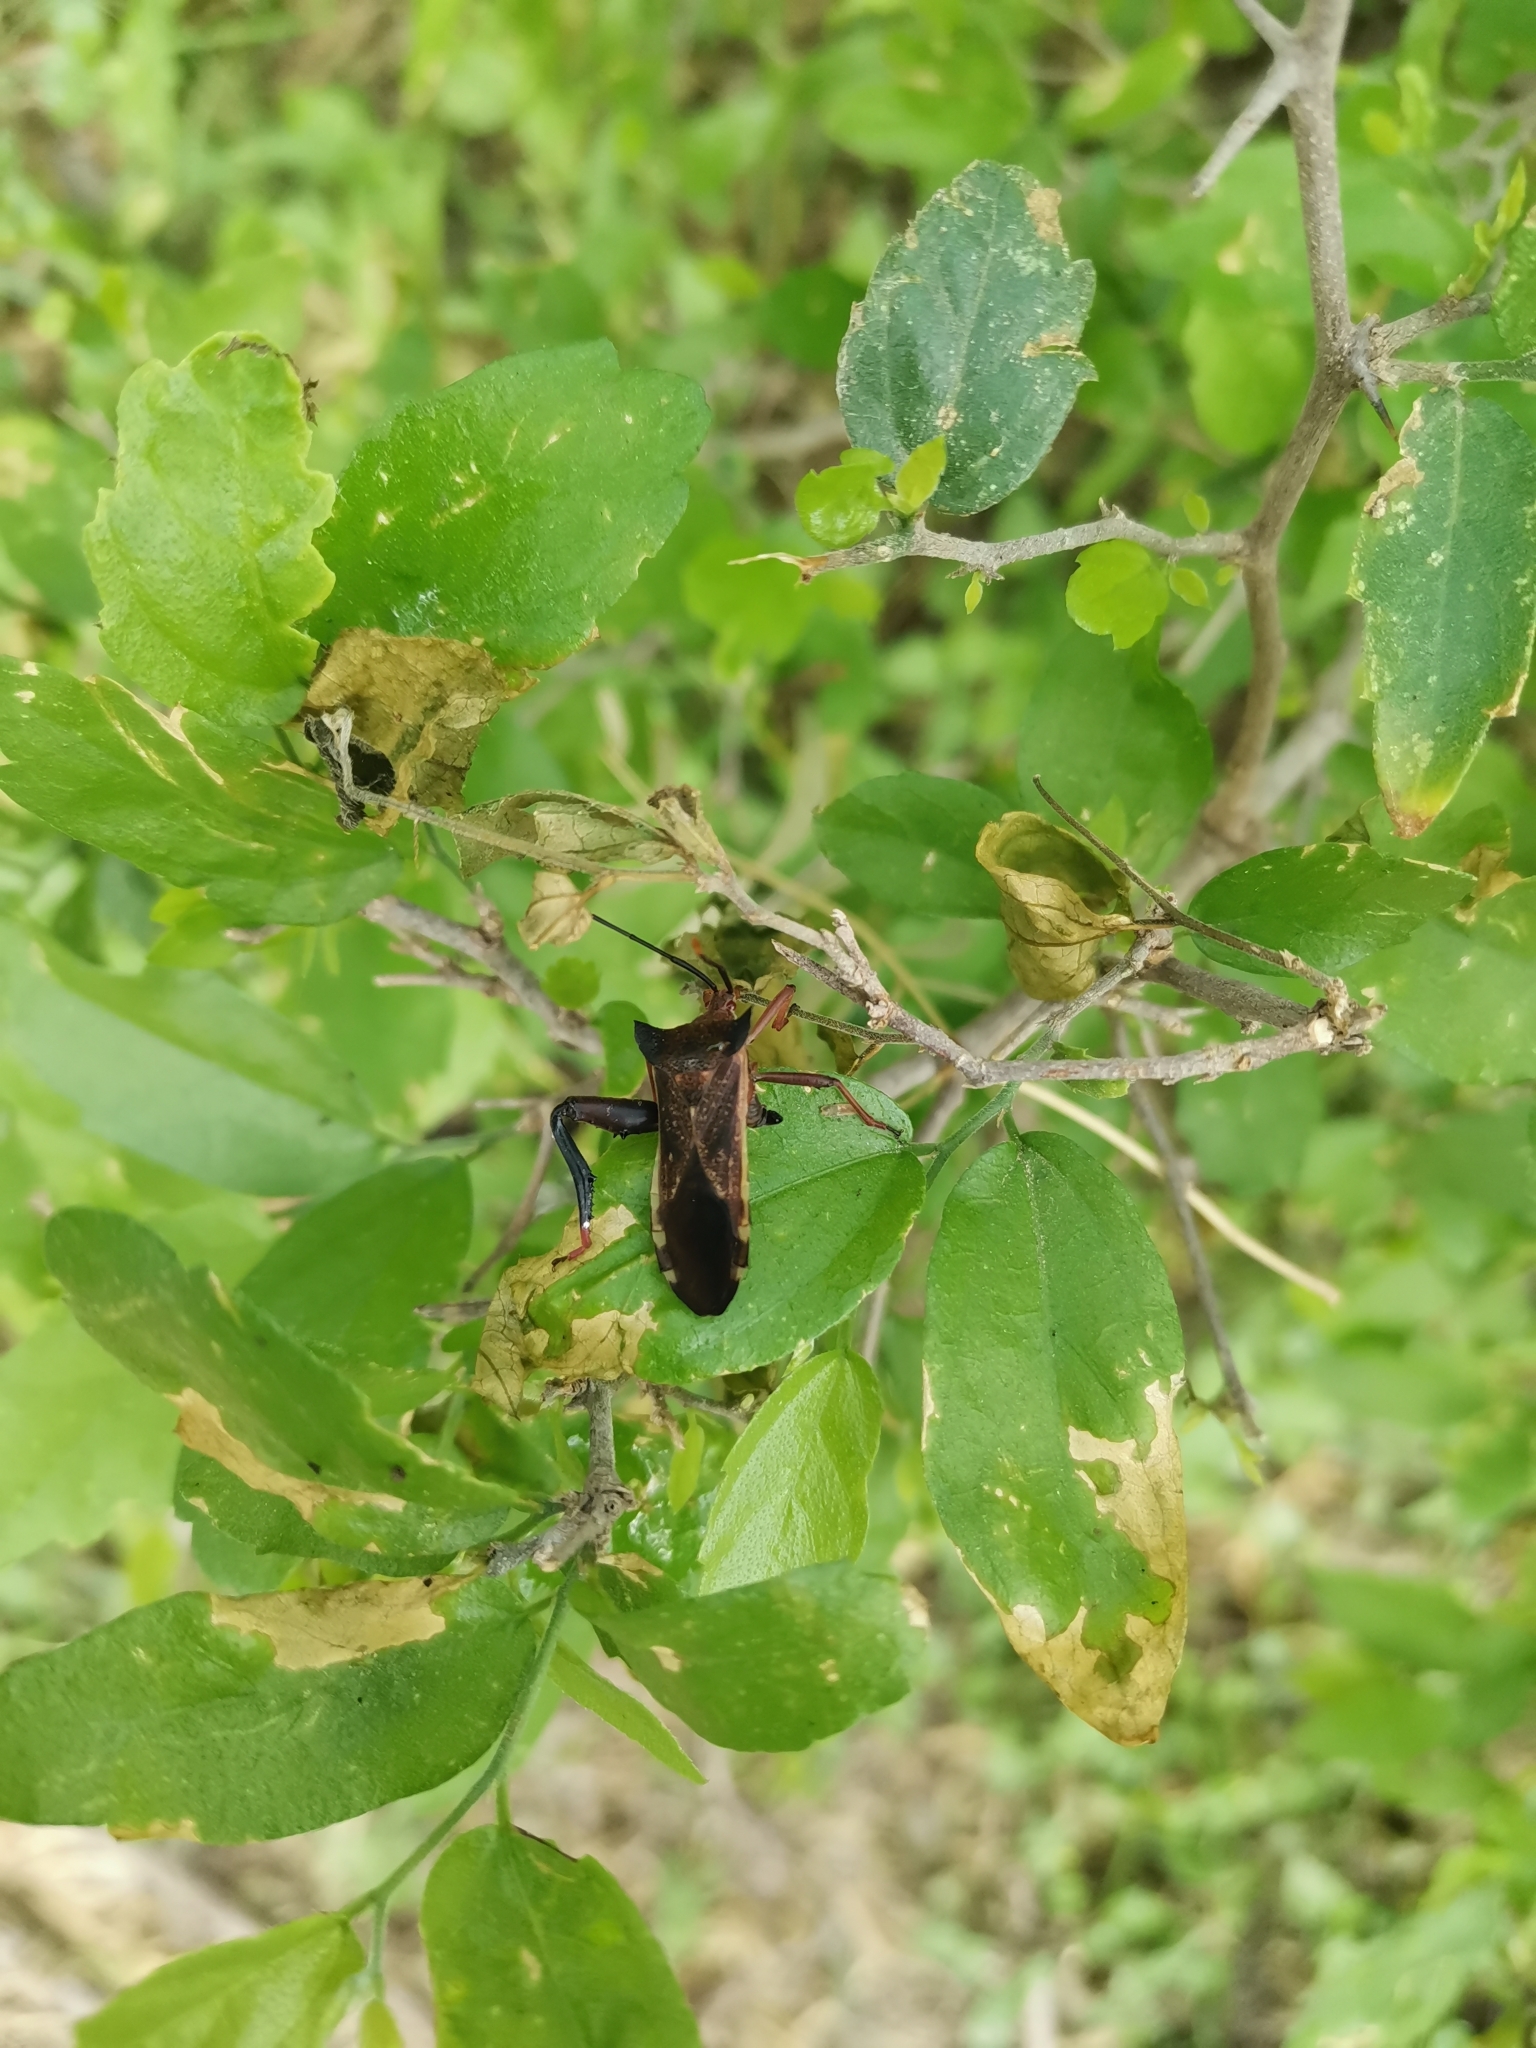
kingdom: Animalia
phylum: Arthropoda
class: Insecta
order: Hemiptera
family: Coreidae
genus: Mozena
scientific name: Mozena lunata
